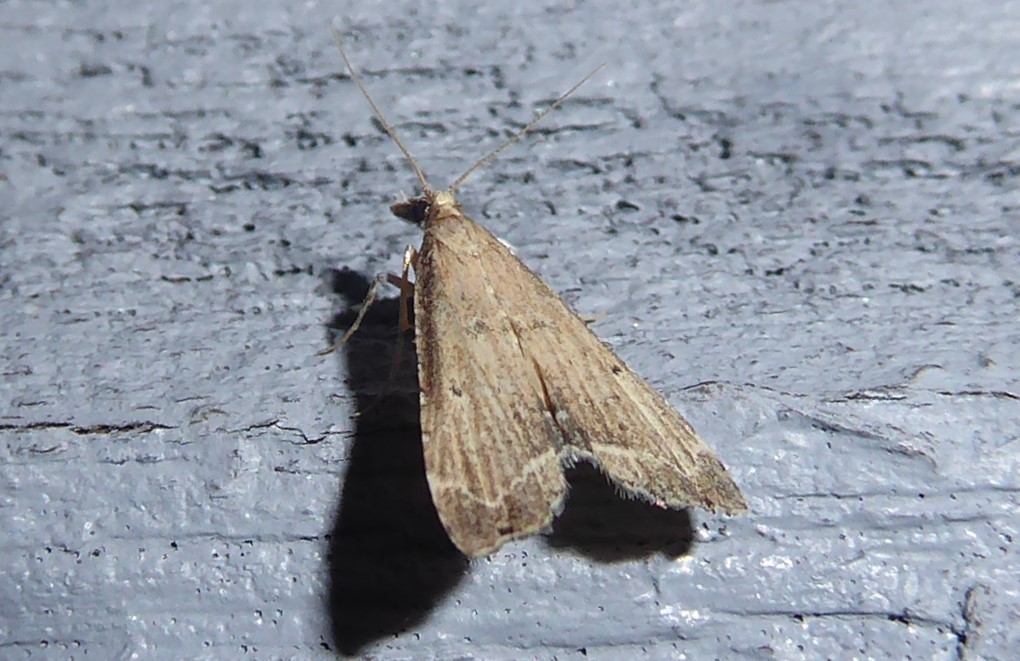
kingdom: Animalia
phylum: Arthropoda
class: Insecta
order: Lepidoptera
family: Crambidae
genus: Diplopseustis
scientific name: Diplopseustis perieresalis
